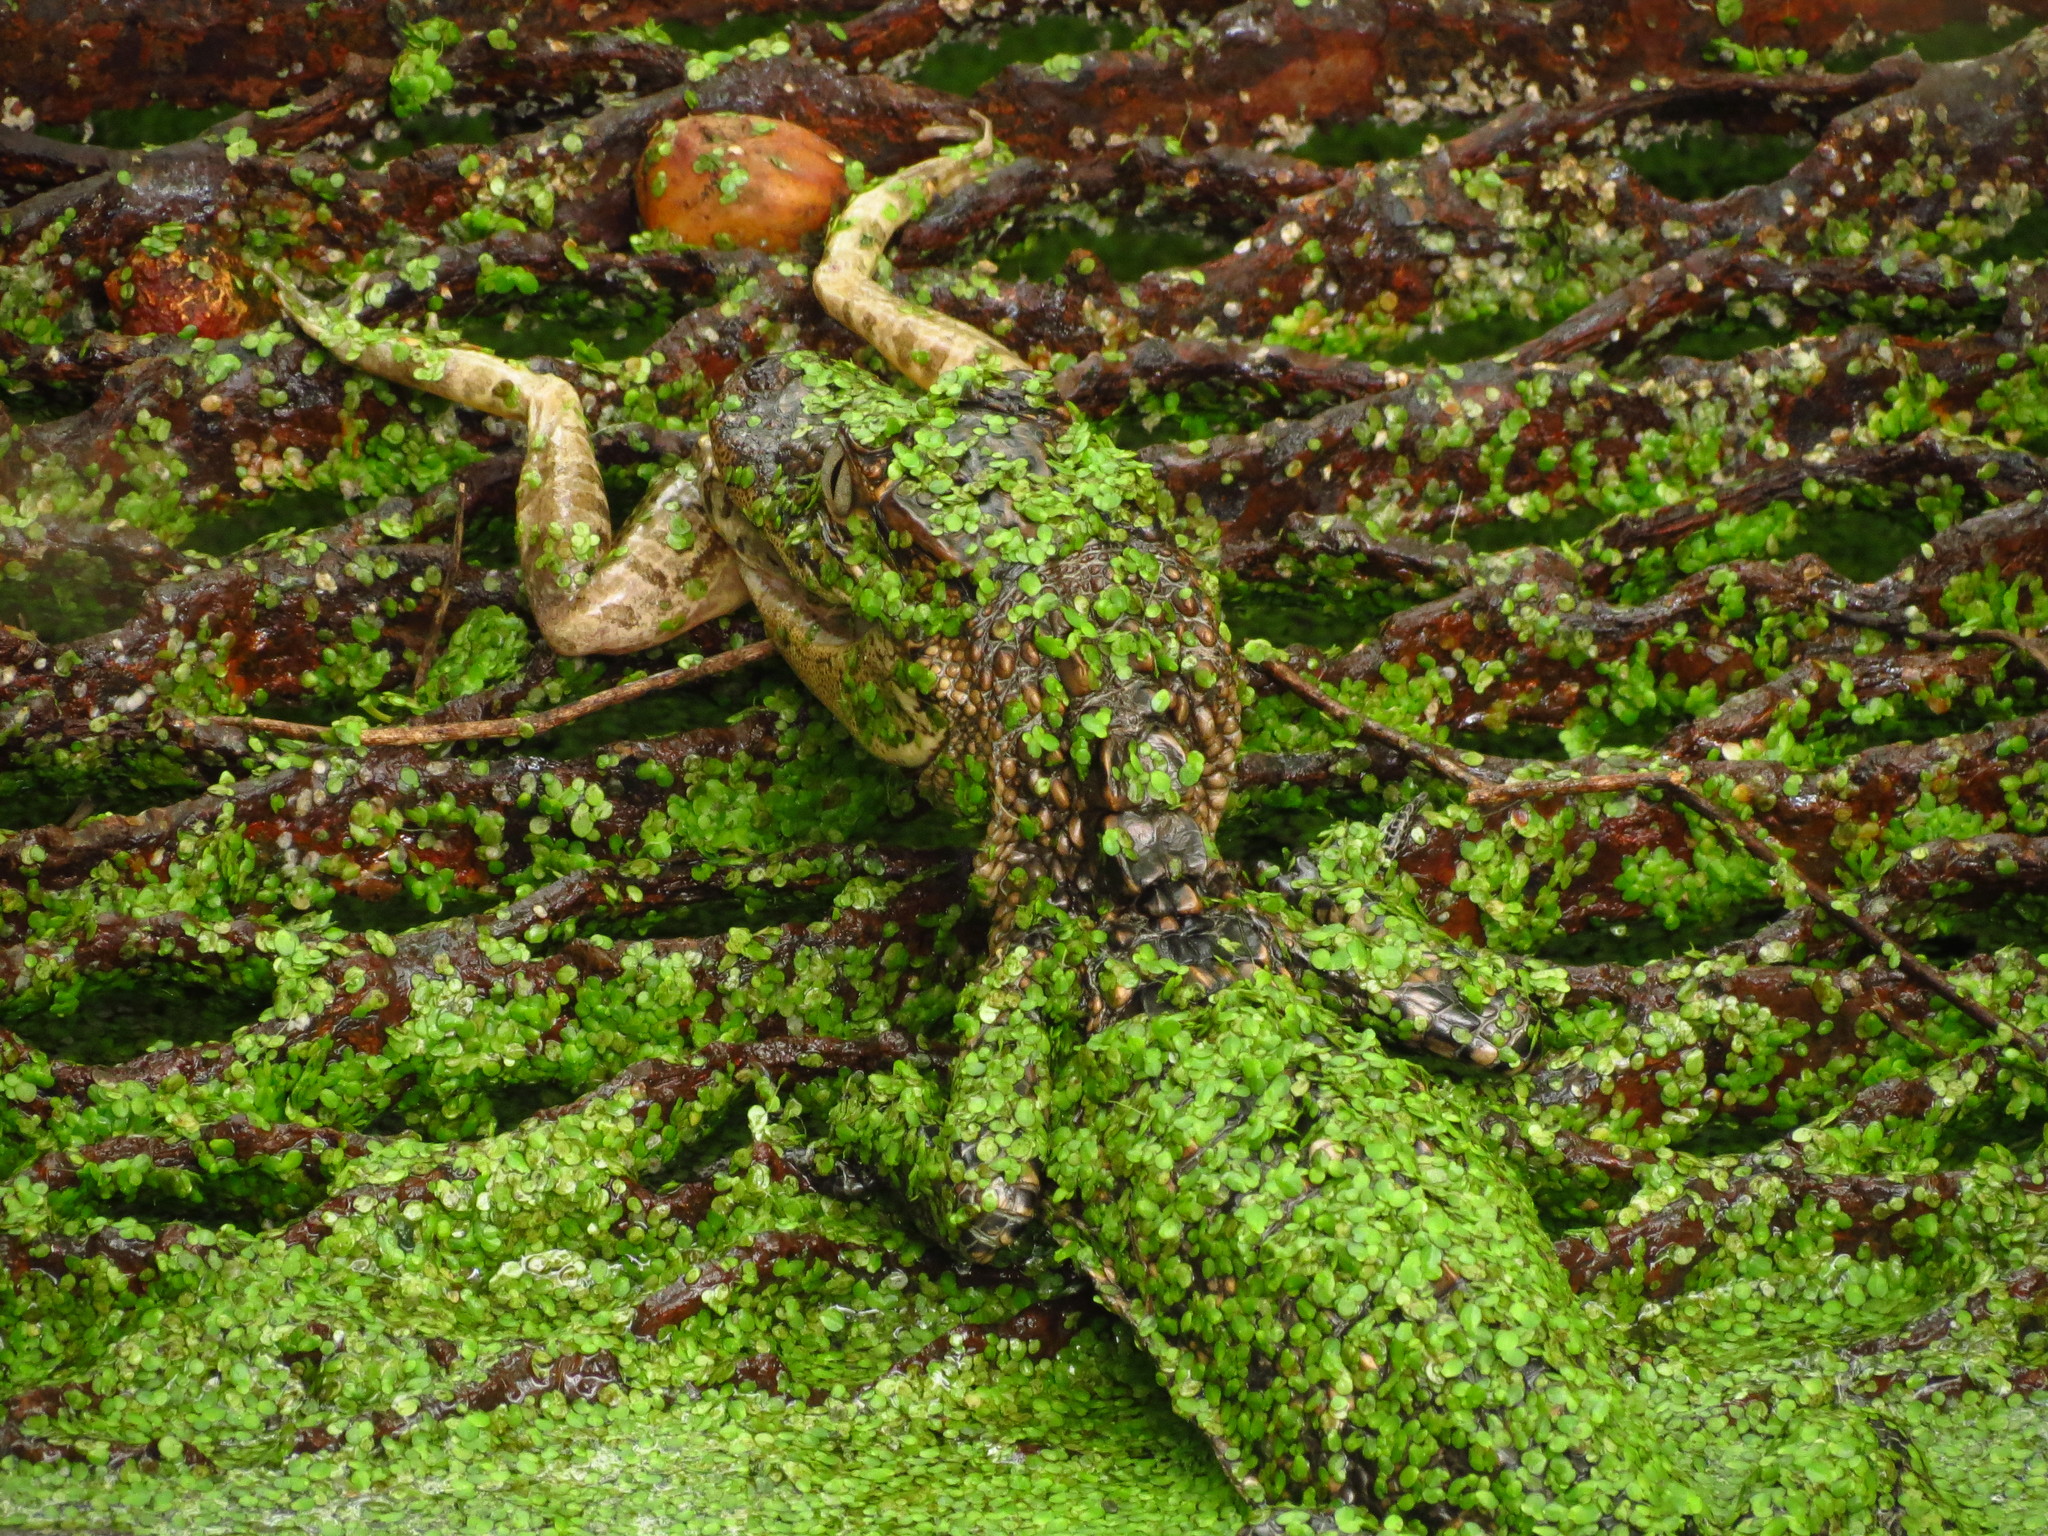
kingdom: Animalia
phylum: Chordata
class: Crocodylia
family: Alligatoridae
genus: Alligator
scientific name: Alligator mississippiensis
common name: American alligator
